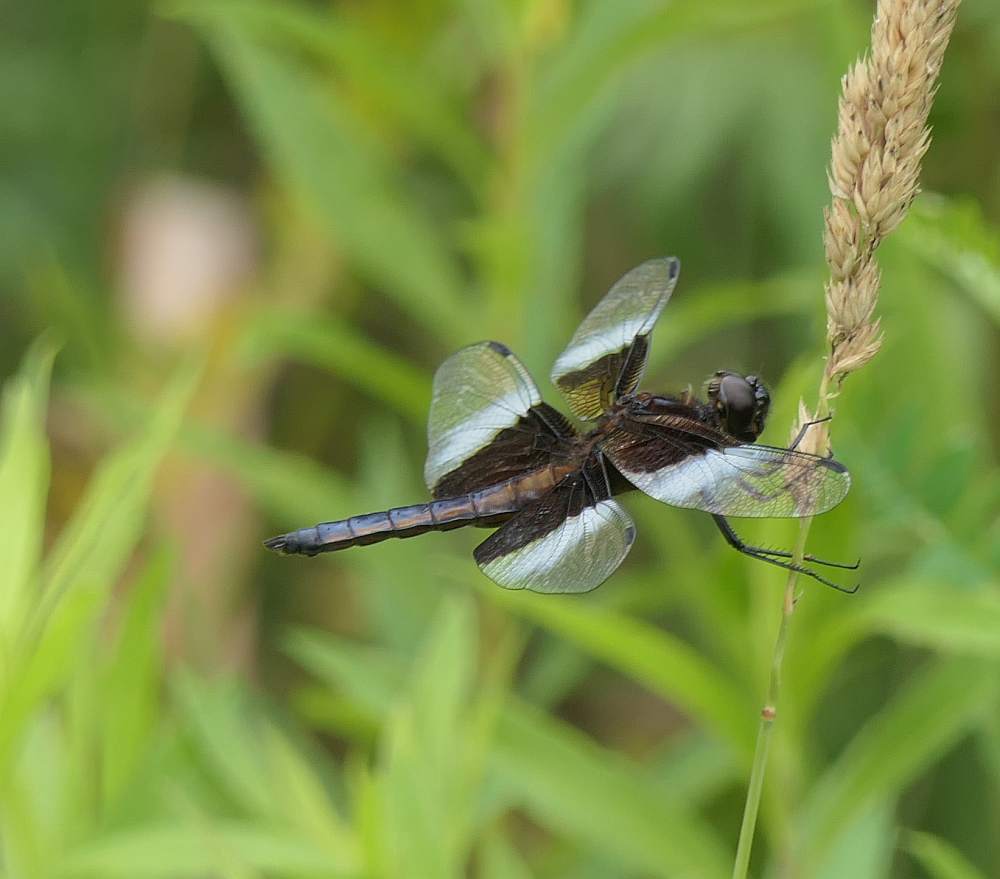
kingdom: Animalia
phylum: Arthropoda
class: Insecta
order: Odonata
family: Libellulidae
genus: Libellula
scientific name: Libellula luctuosa
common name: Widow skimmer
